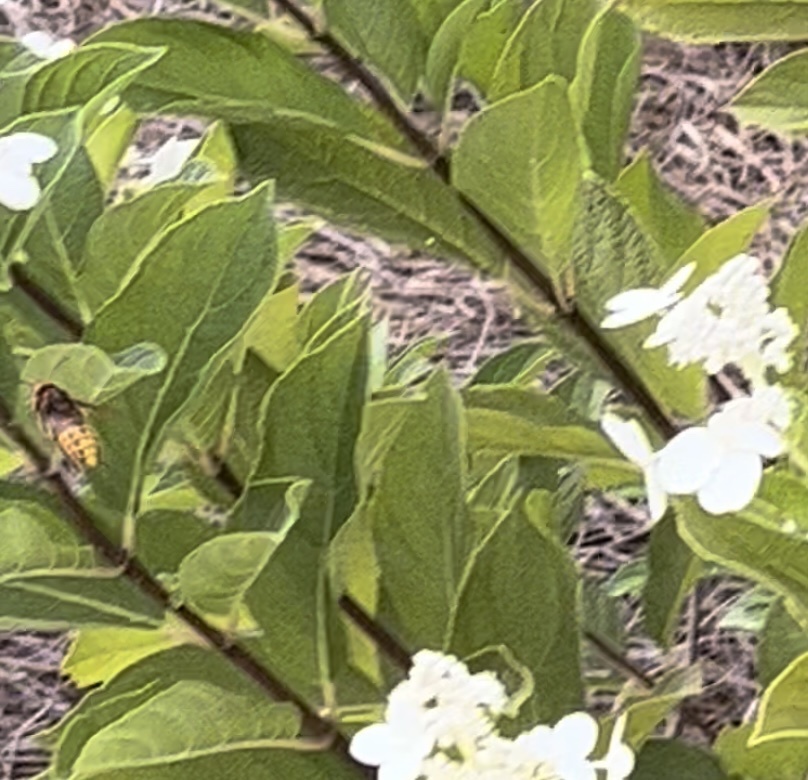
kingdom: Animalia
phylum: Arthropoda
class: Insecta
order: Hymenoptera
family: Vespidae
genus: Vespa
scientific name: Vespa crabro
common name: Hornet
